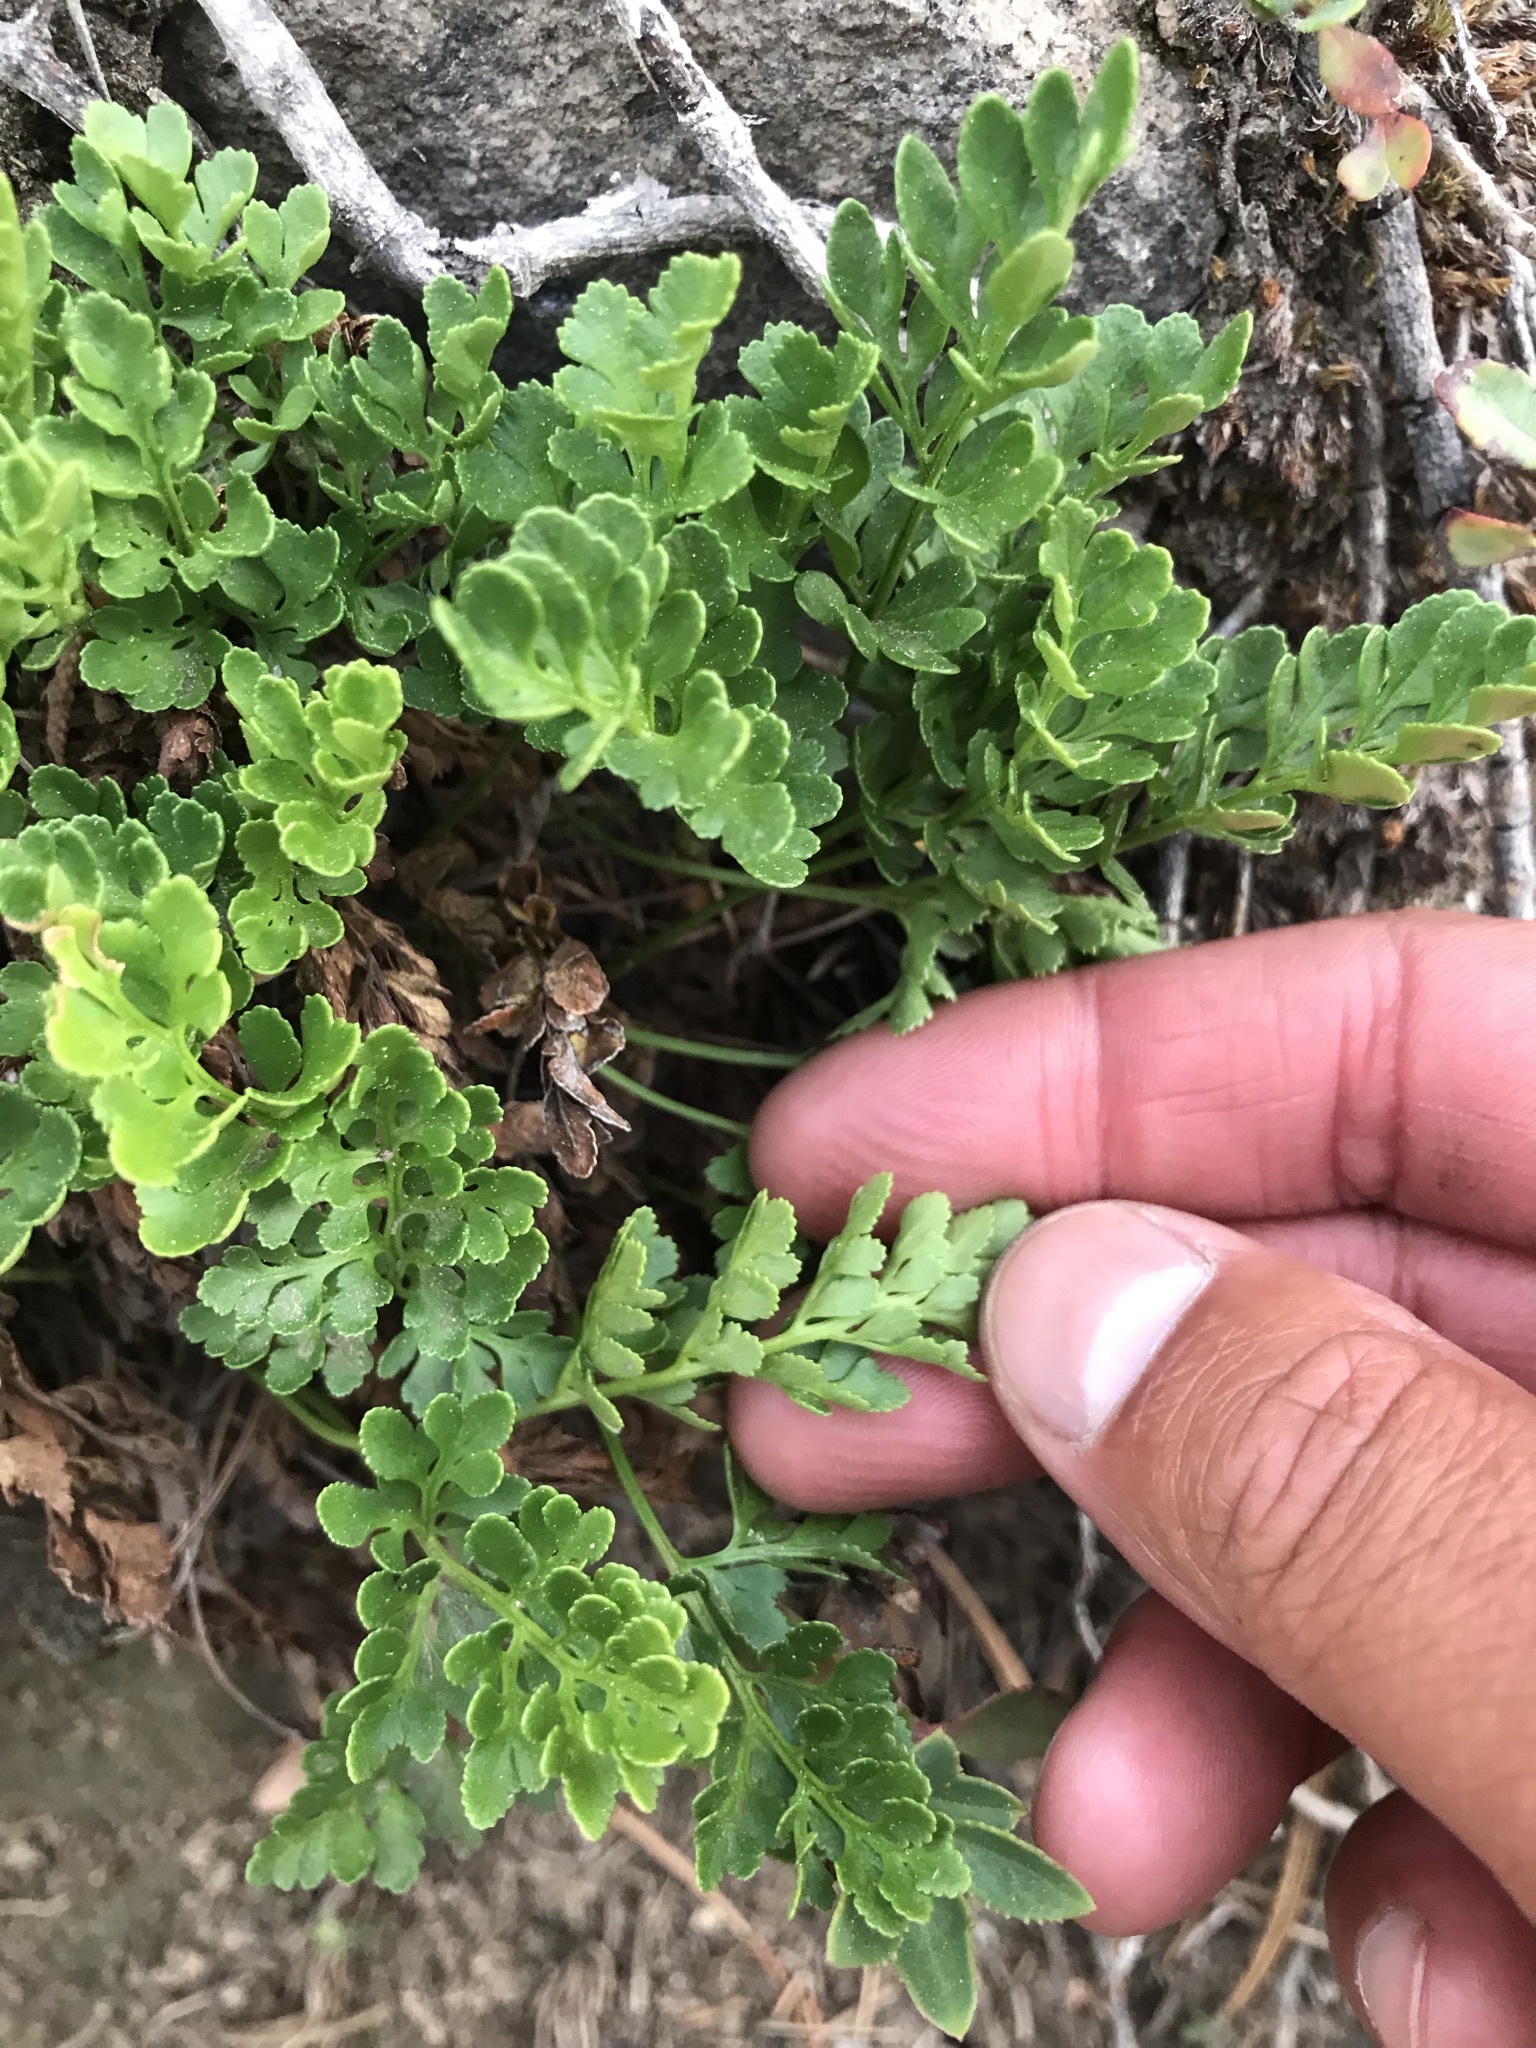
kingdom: Plantae
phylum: Tracheophyta
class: Polypodiopsida
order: Polypodiales
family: Pteridaceae
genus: Cryptogramma
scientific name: Cryptogramma acrostichoides
